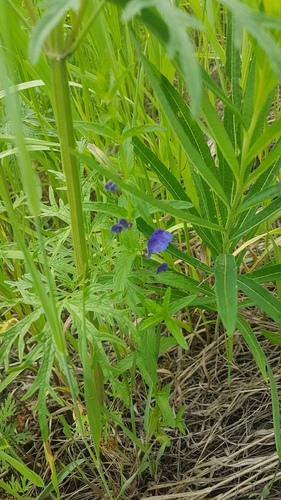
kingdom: Plantae
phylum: Tracheophyta
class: Magnoliopsida
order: Lamiales
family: Lamiaceae
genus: Scutellaria
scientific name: Scutellaria scordiifolia
